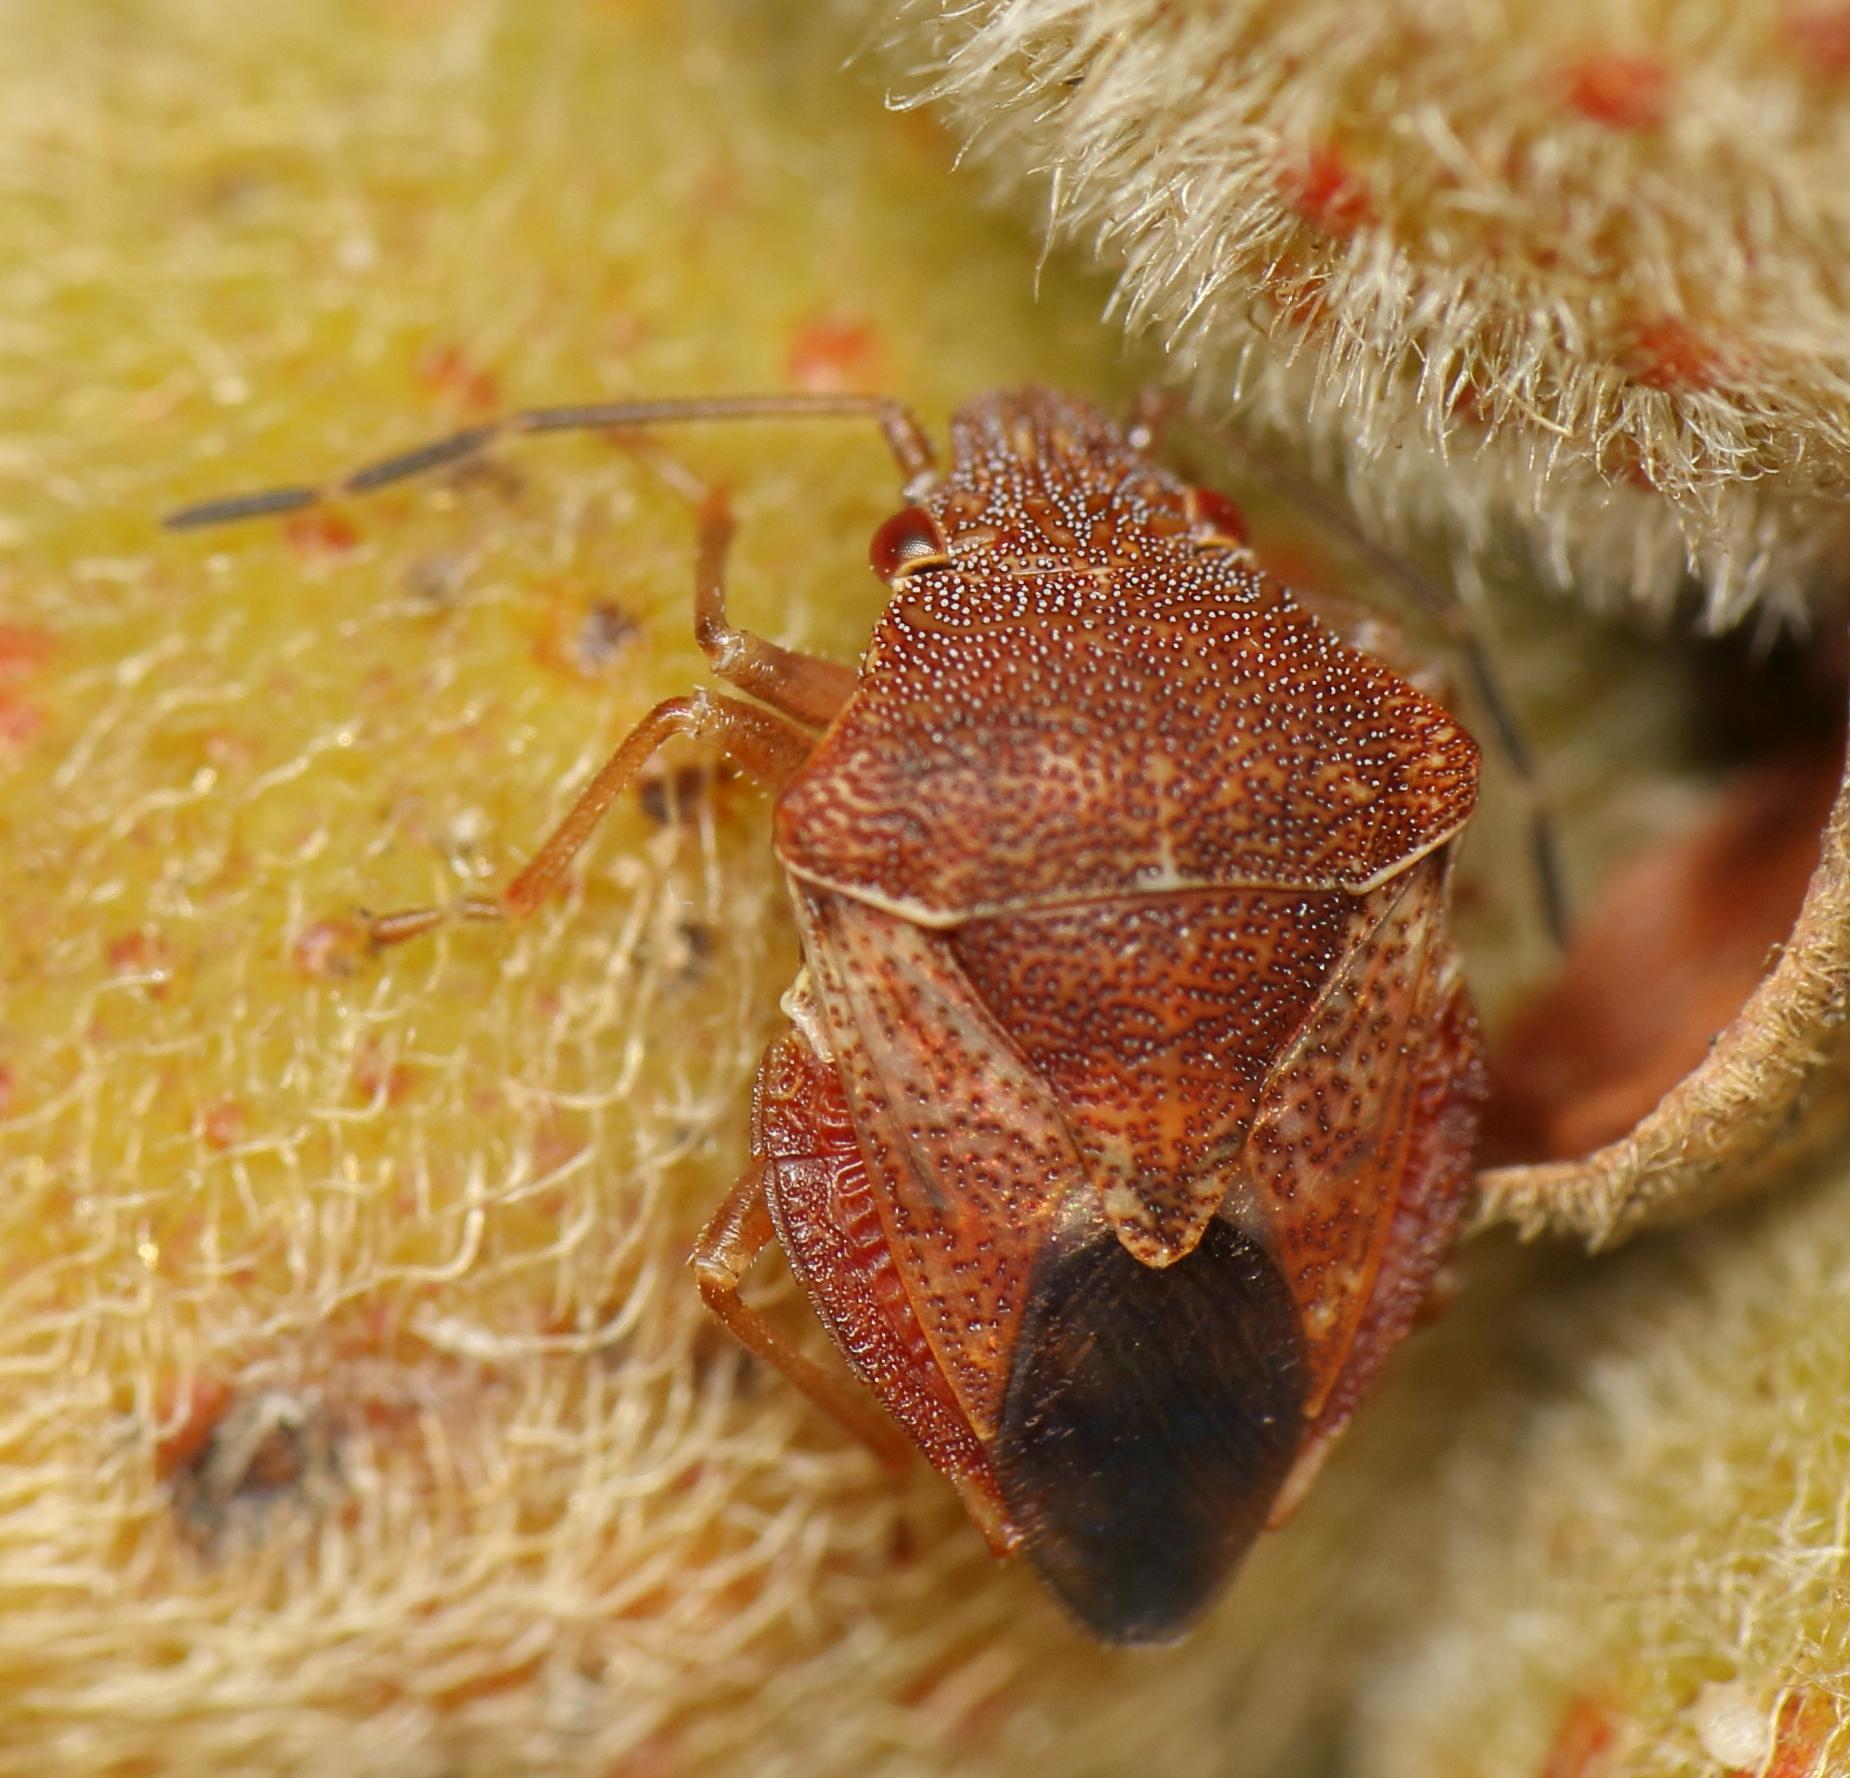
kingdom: Animalia
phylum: Arthropoda
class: Insecta
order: Hemiptera
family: Acanthosomatidae
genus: Uhlunga
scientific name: Uhlunga typica
